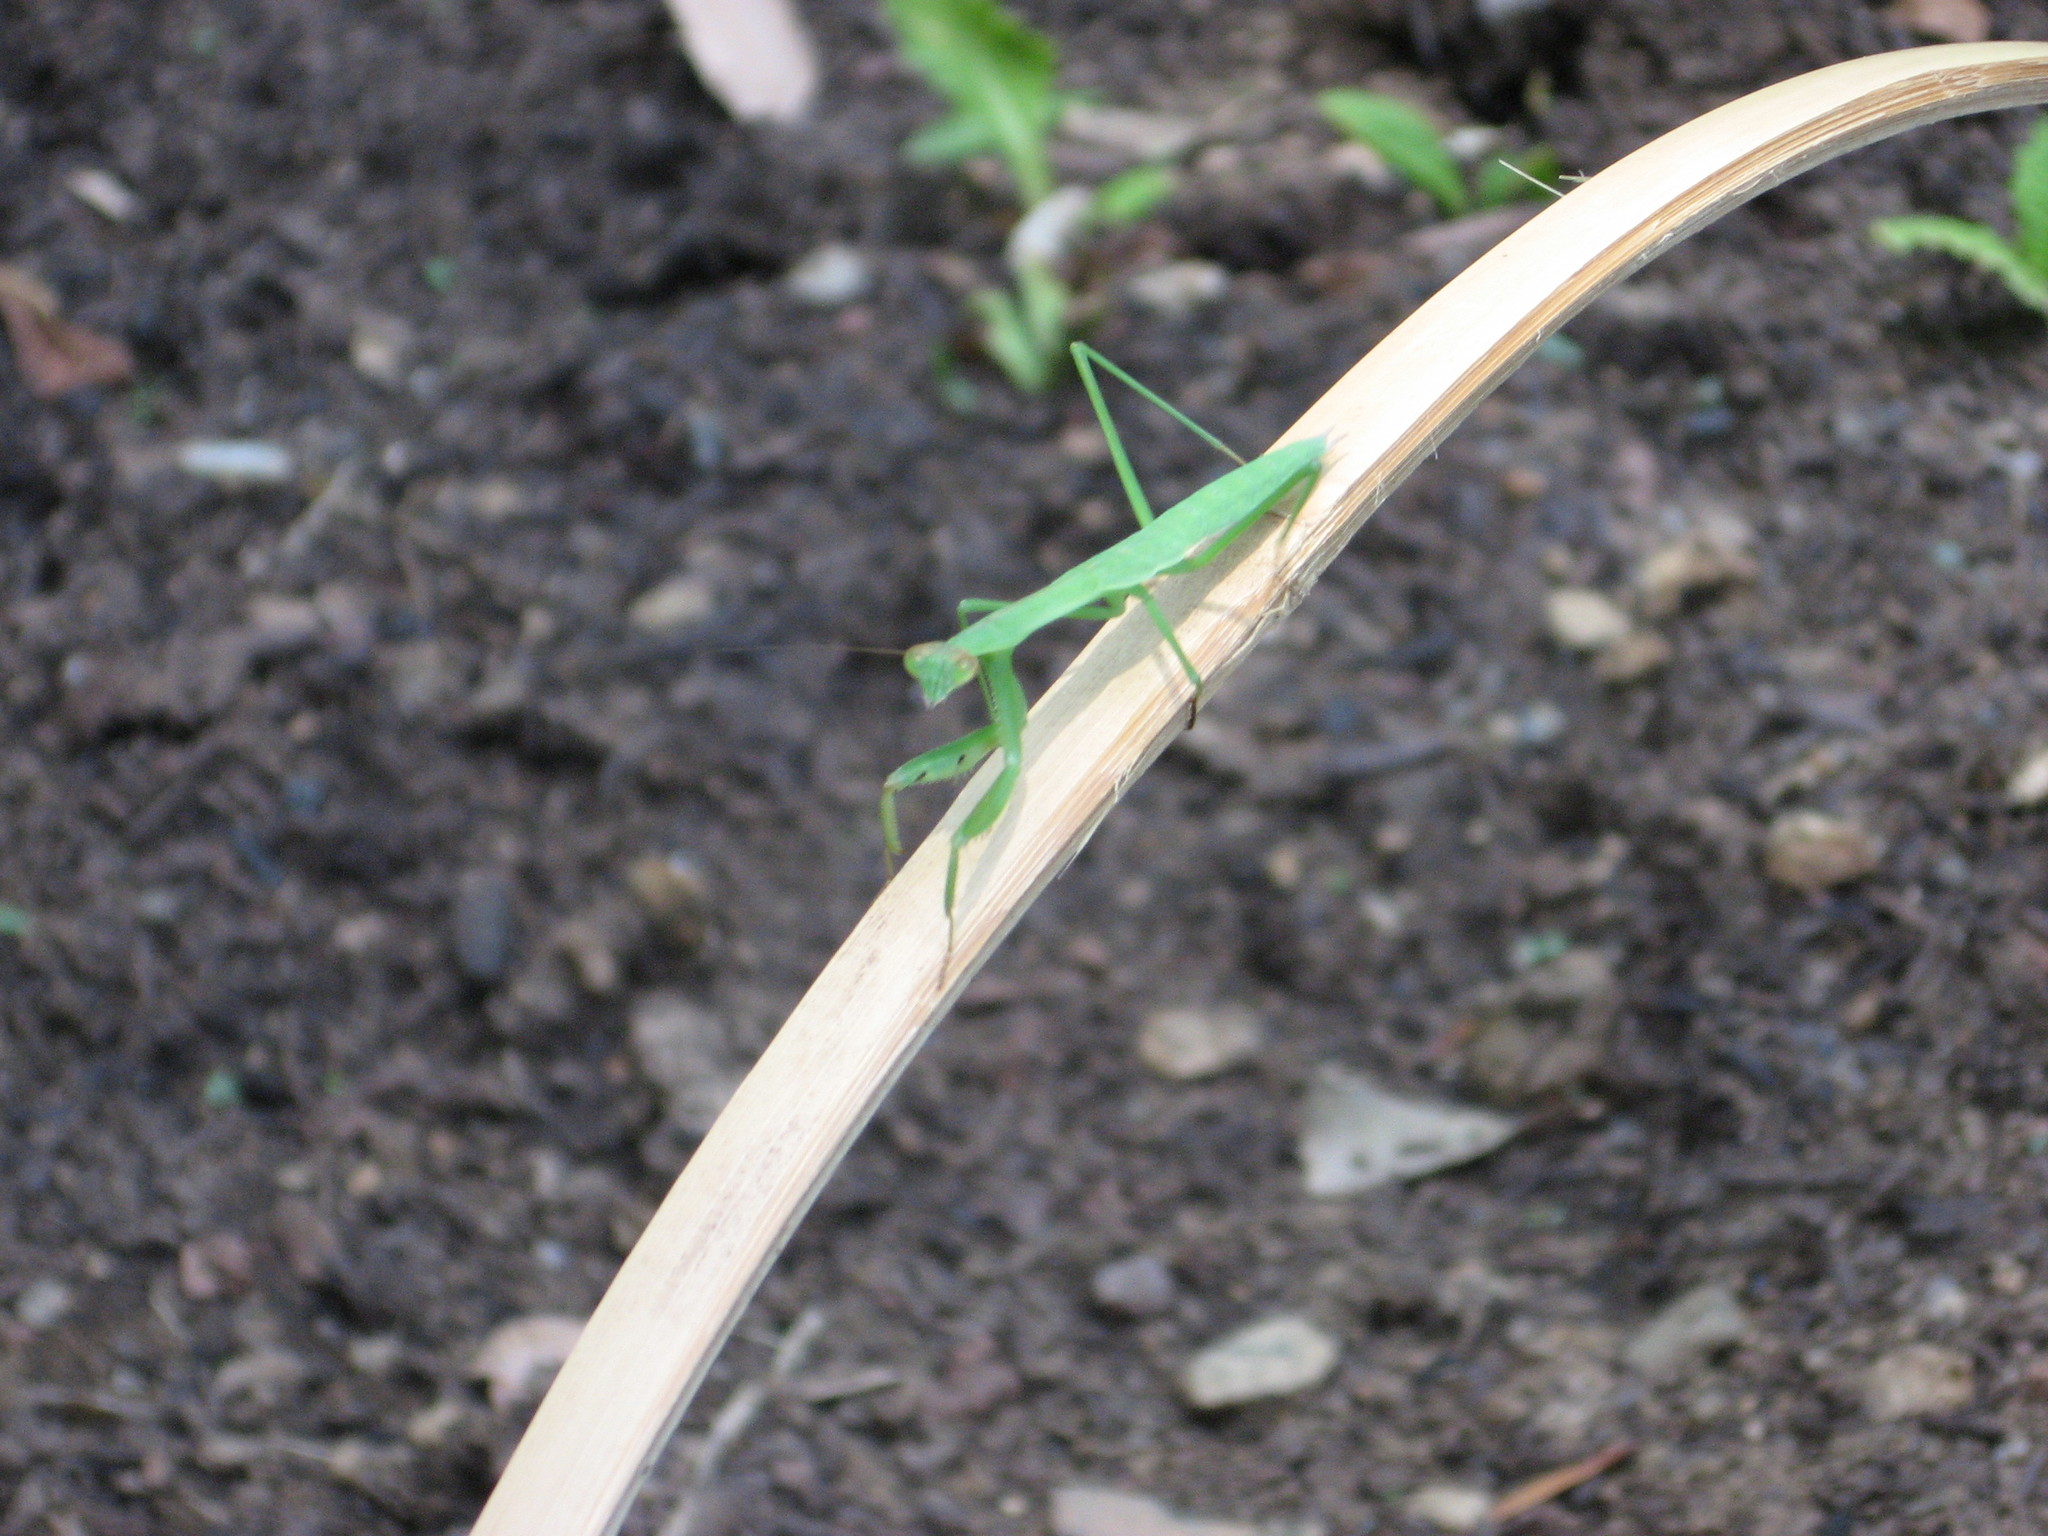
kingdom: Animalia
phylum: Arthropoda
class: Insecta
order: Mantodea
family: Mantidae
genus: Tenodera
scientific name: Tenodera sinensis
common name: Chinese mantis
